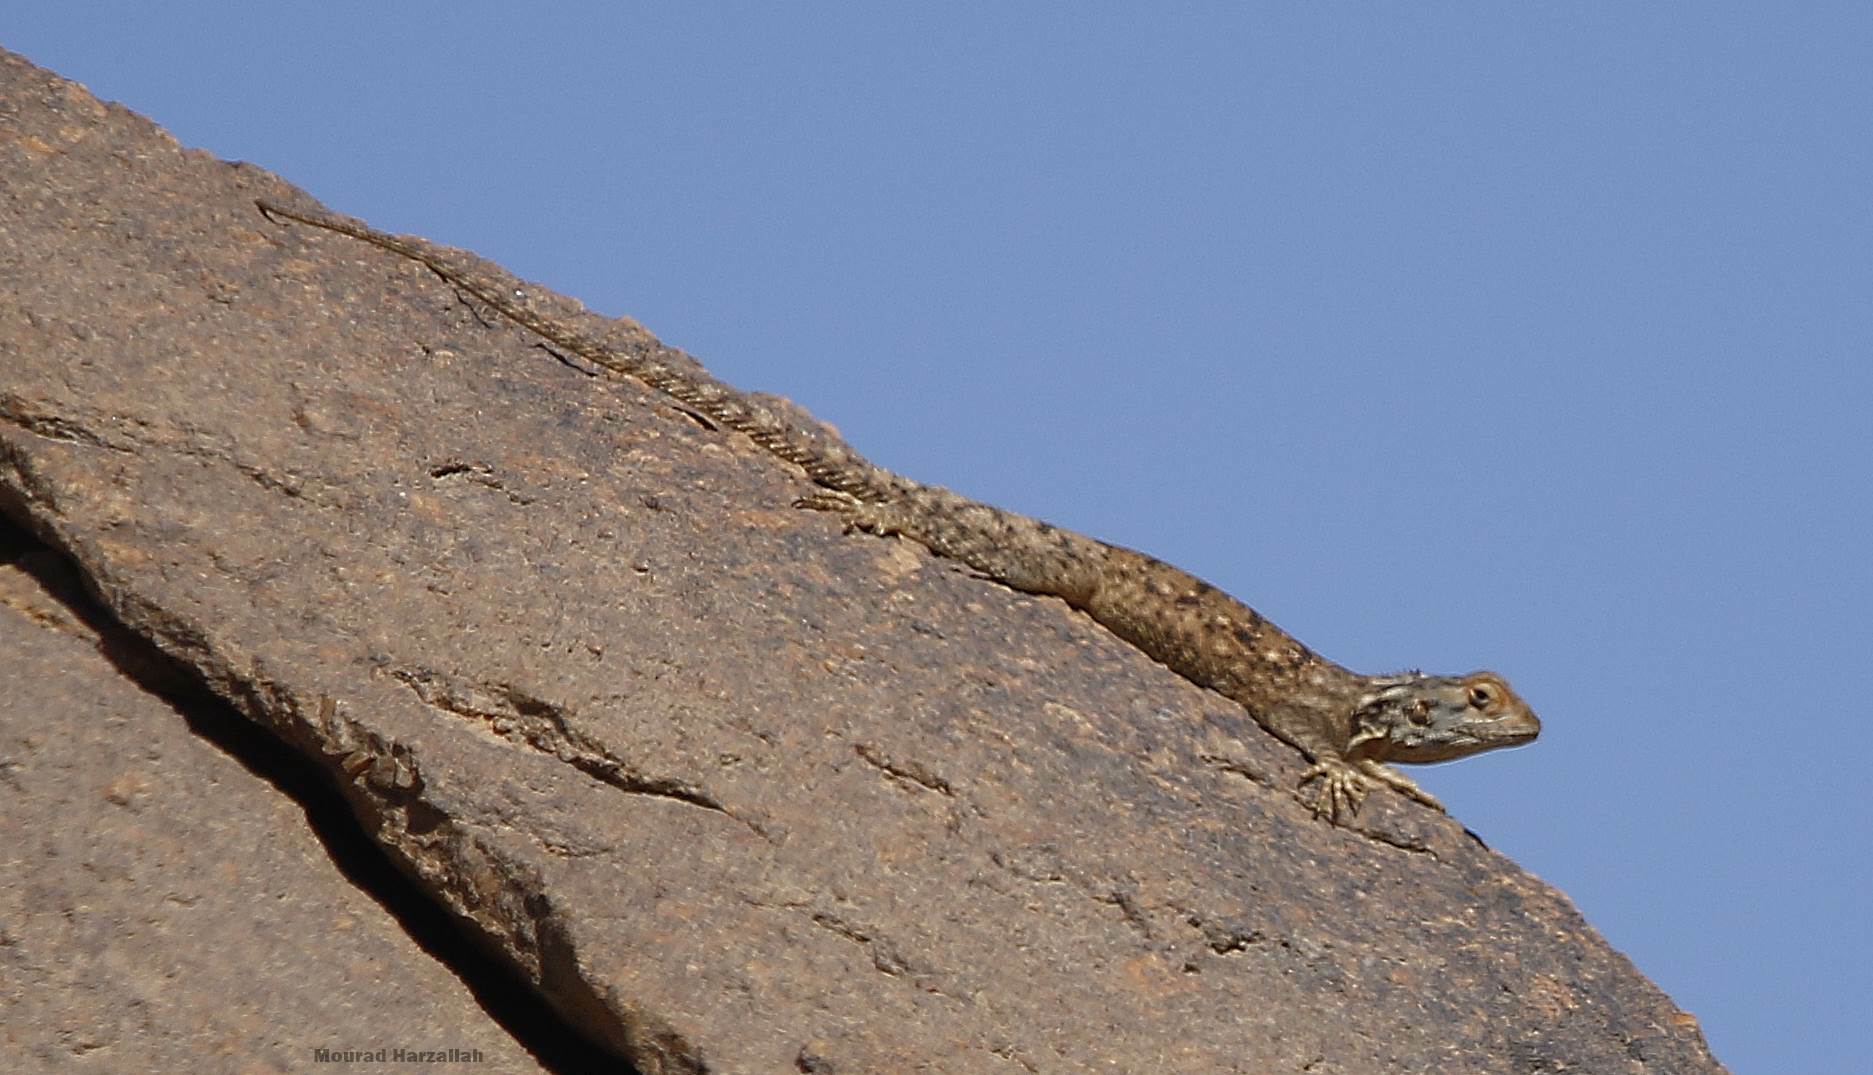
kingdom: Animalia
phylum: Chordata
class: Squamata
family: Agamidae
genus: Agama
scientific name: Agama tassiliensis
